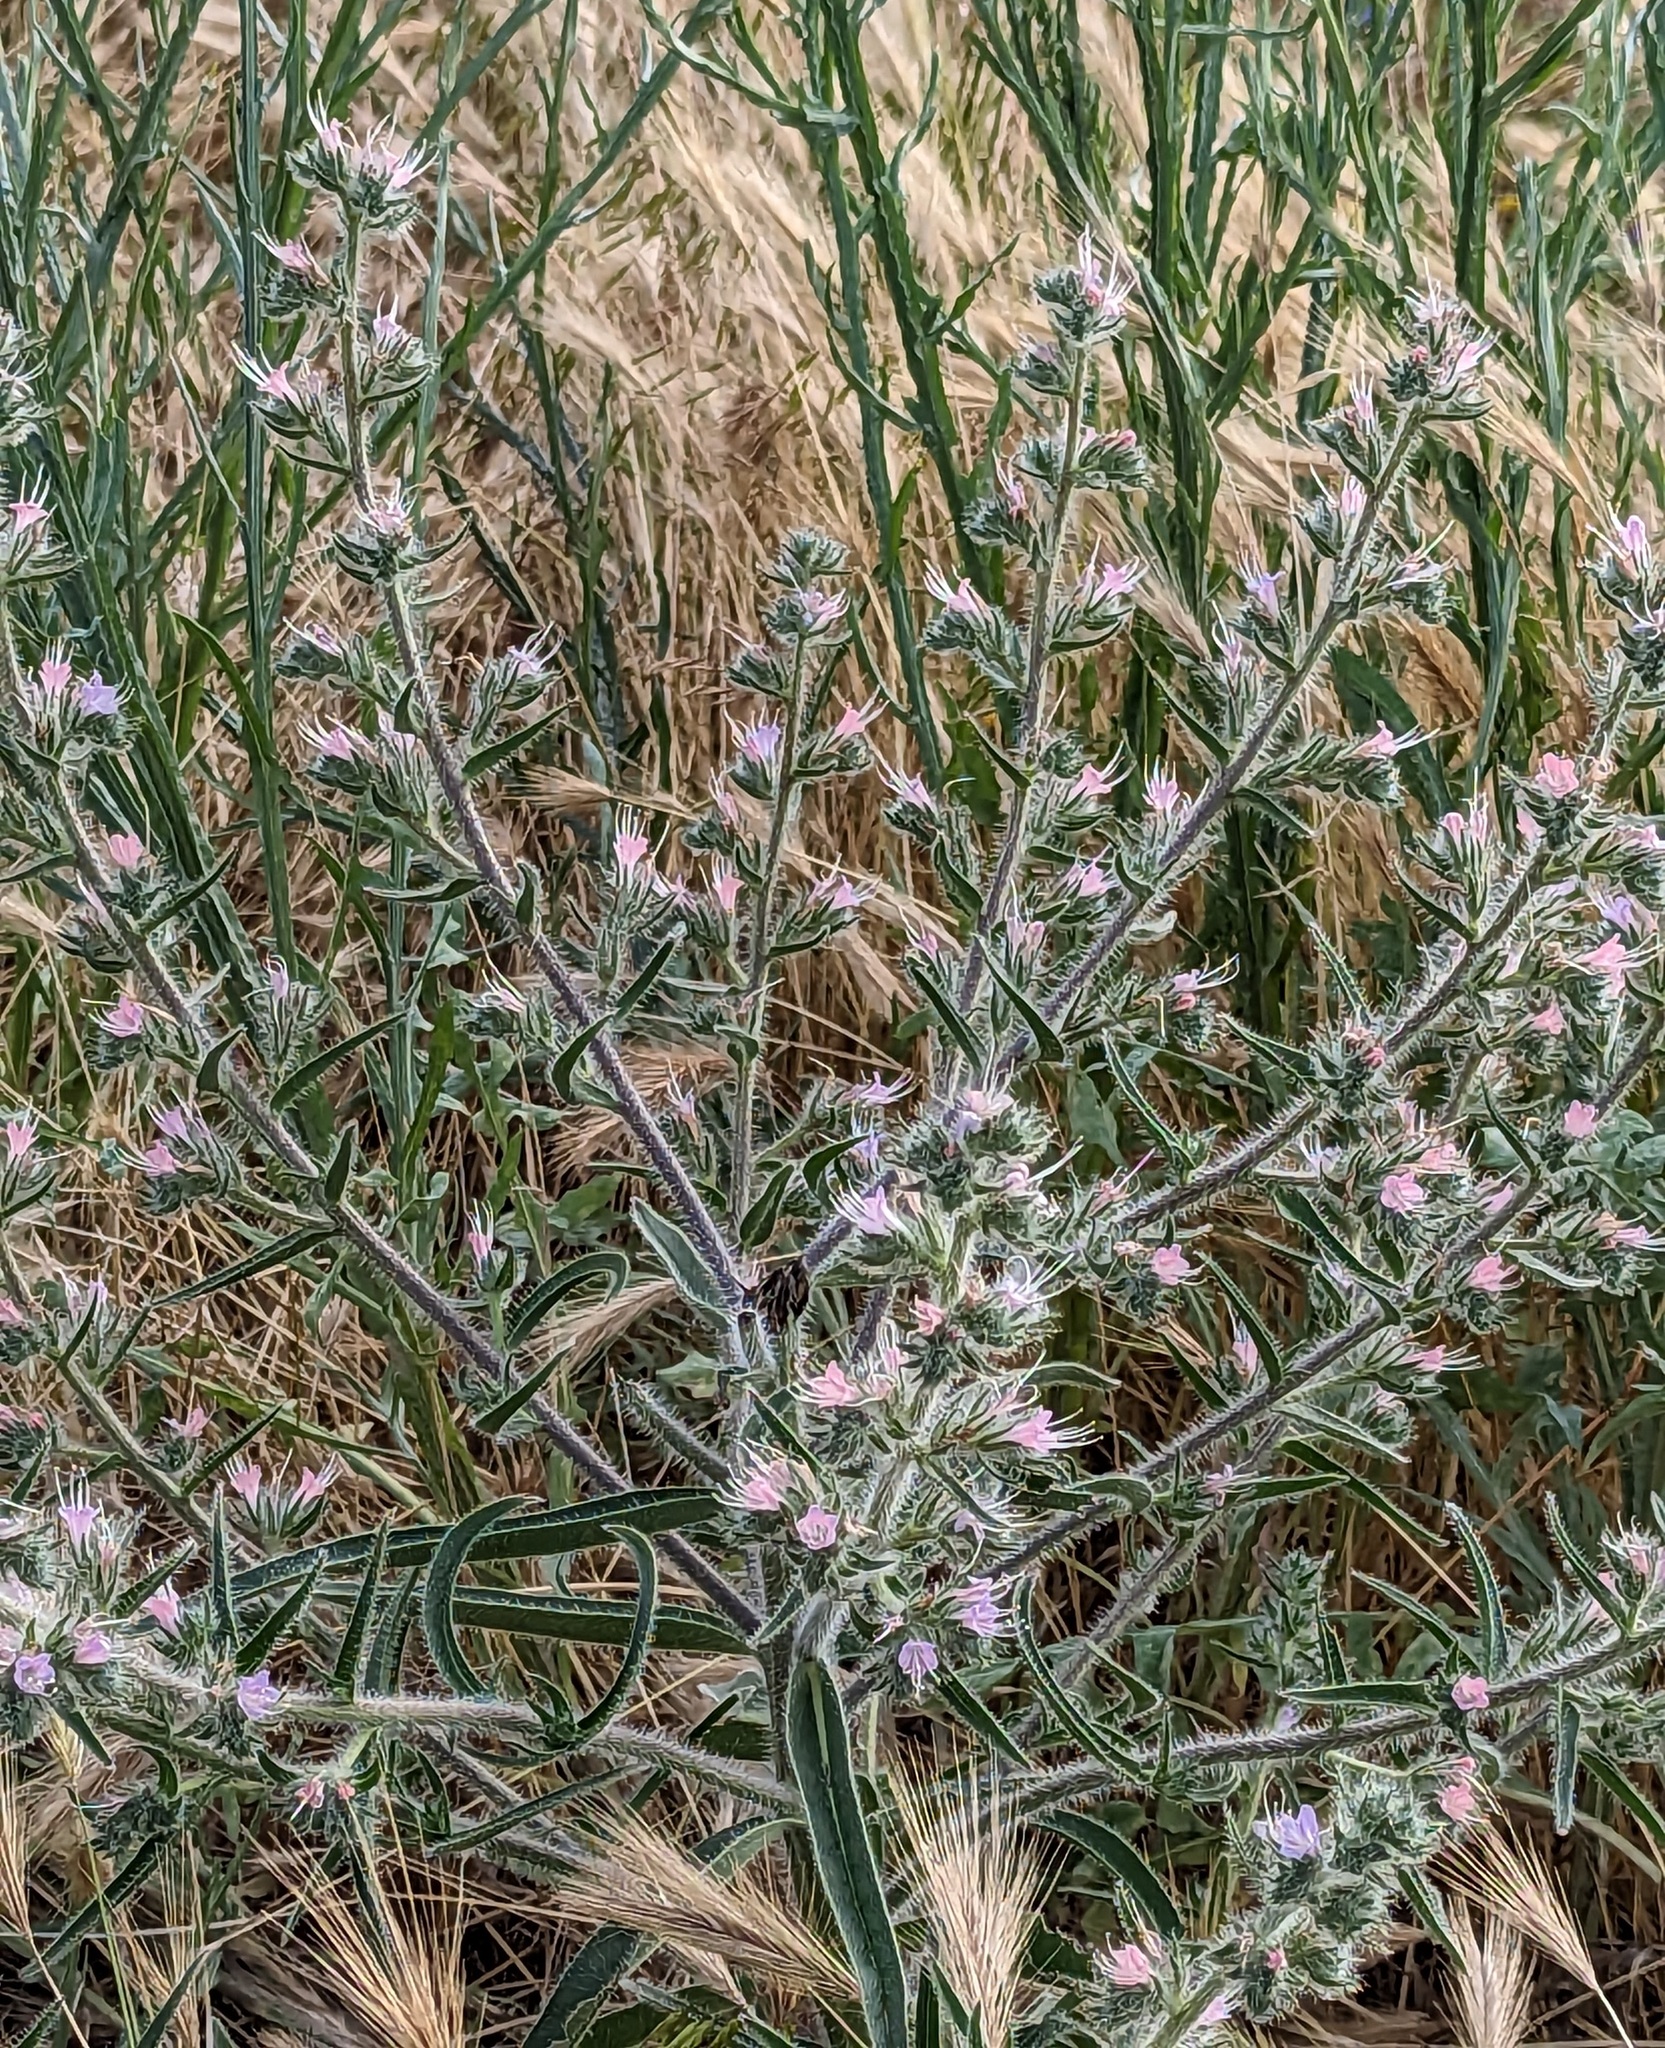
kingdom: Plantae
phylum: Tracheophyta
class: Magnoliopsida
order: Boraginales
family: Boraginaceae
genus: Echium
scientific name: Echium italicum
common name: Italian viper's bugloss
